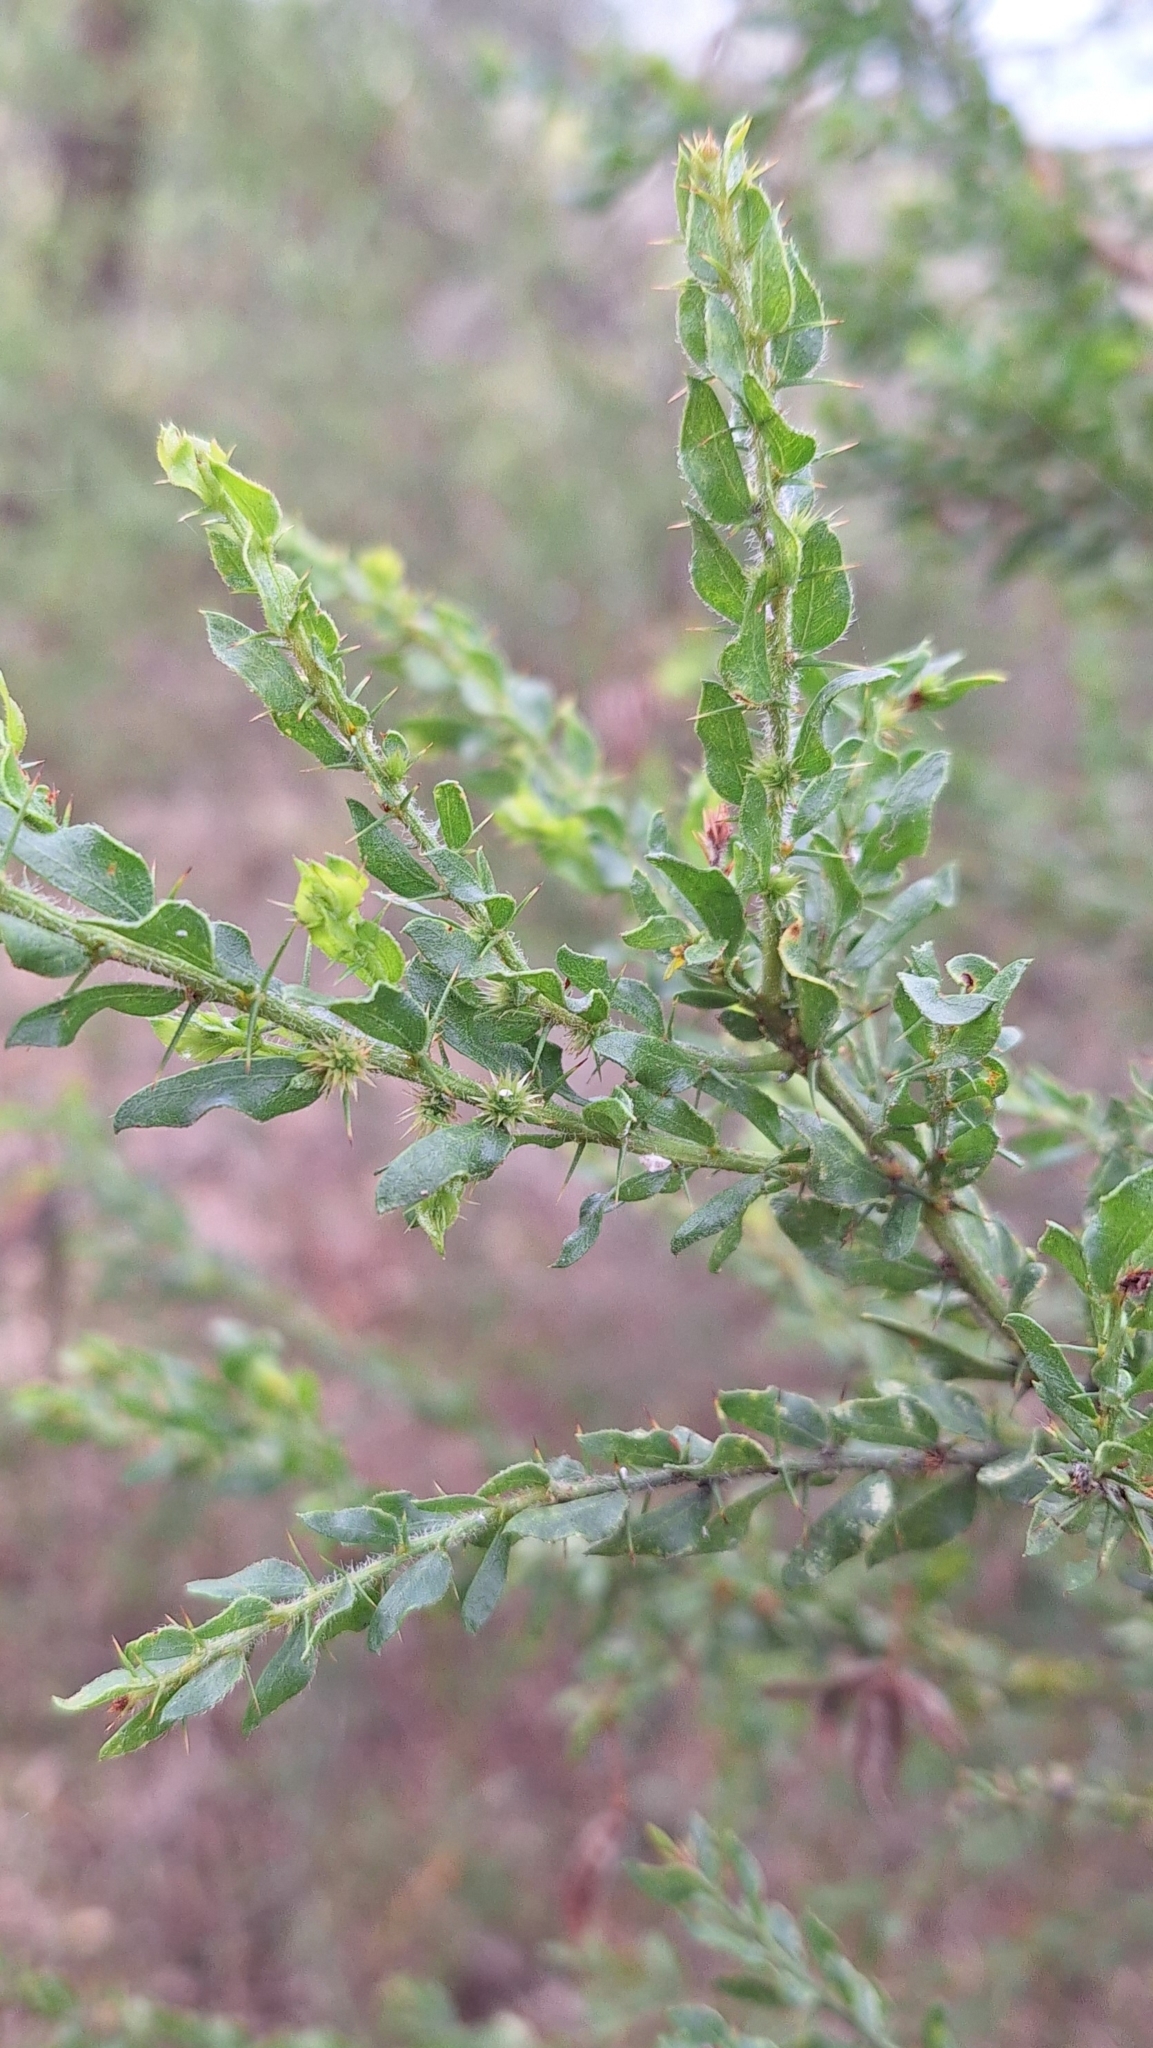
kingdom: Plantae
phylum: Tracheophyta
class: Magnoliopsida
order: Fabales
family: Fabaceae
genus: Acacia
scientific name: Acacia paradoxa
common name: Paradox acacia
